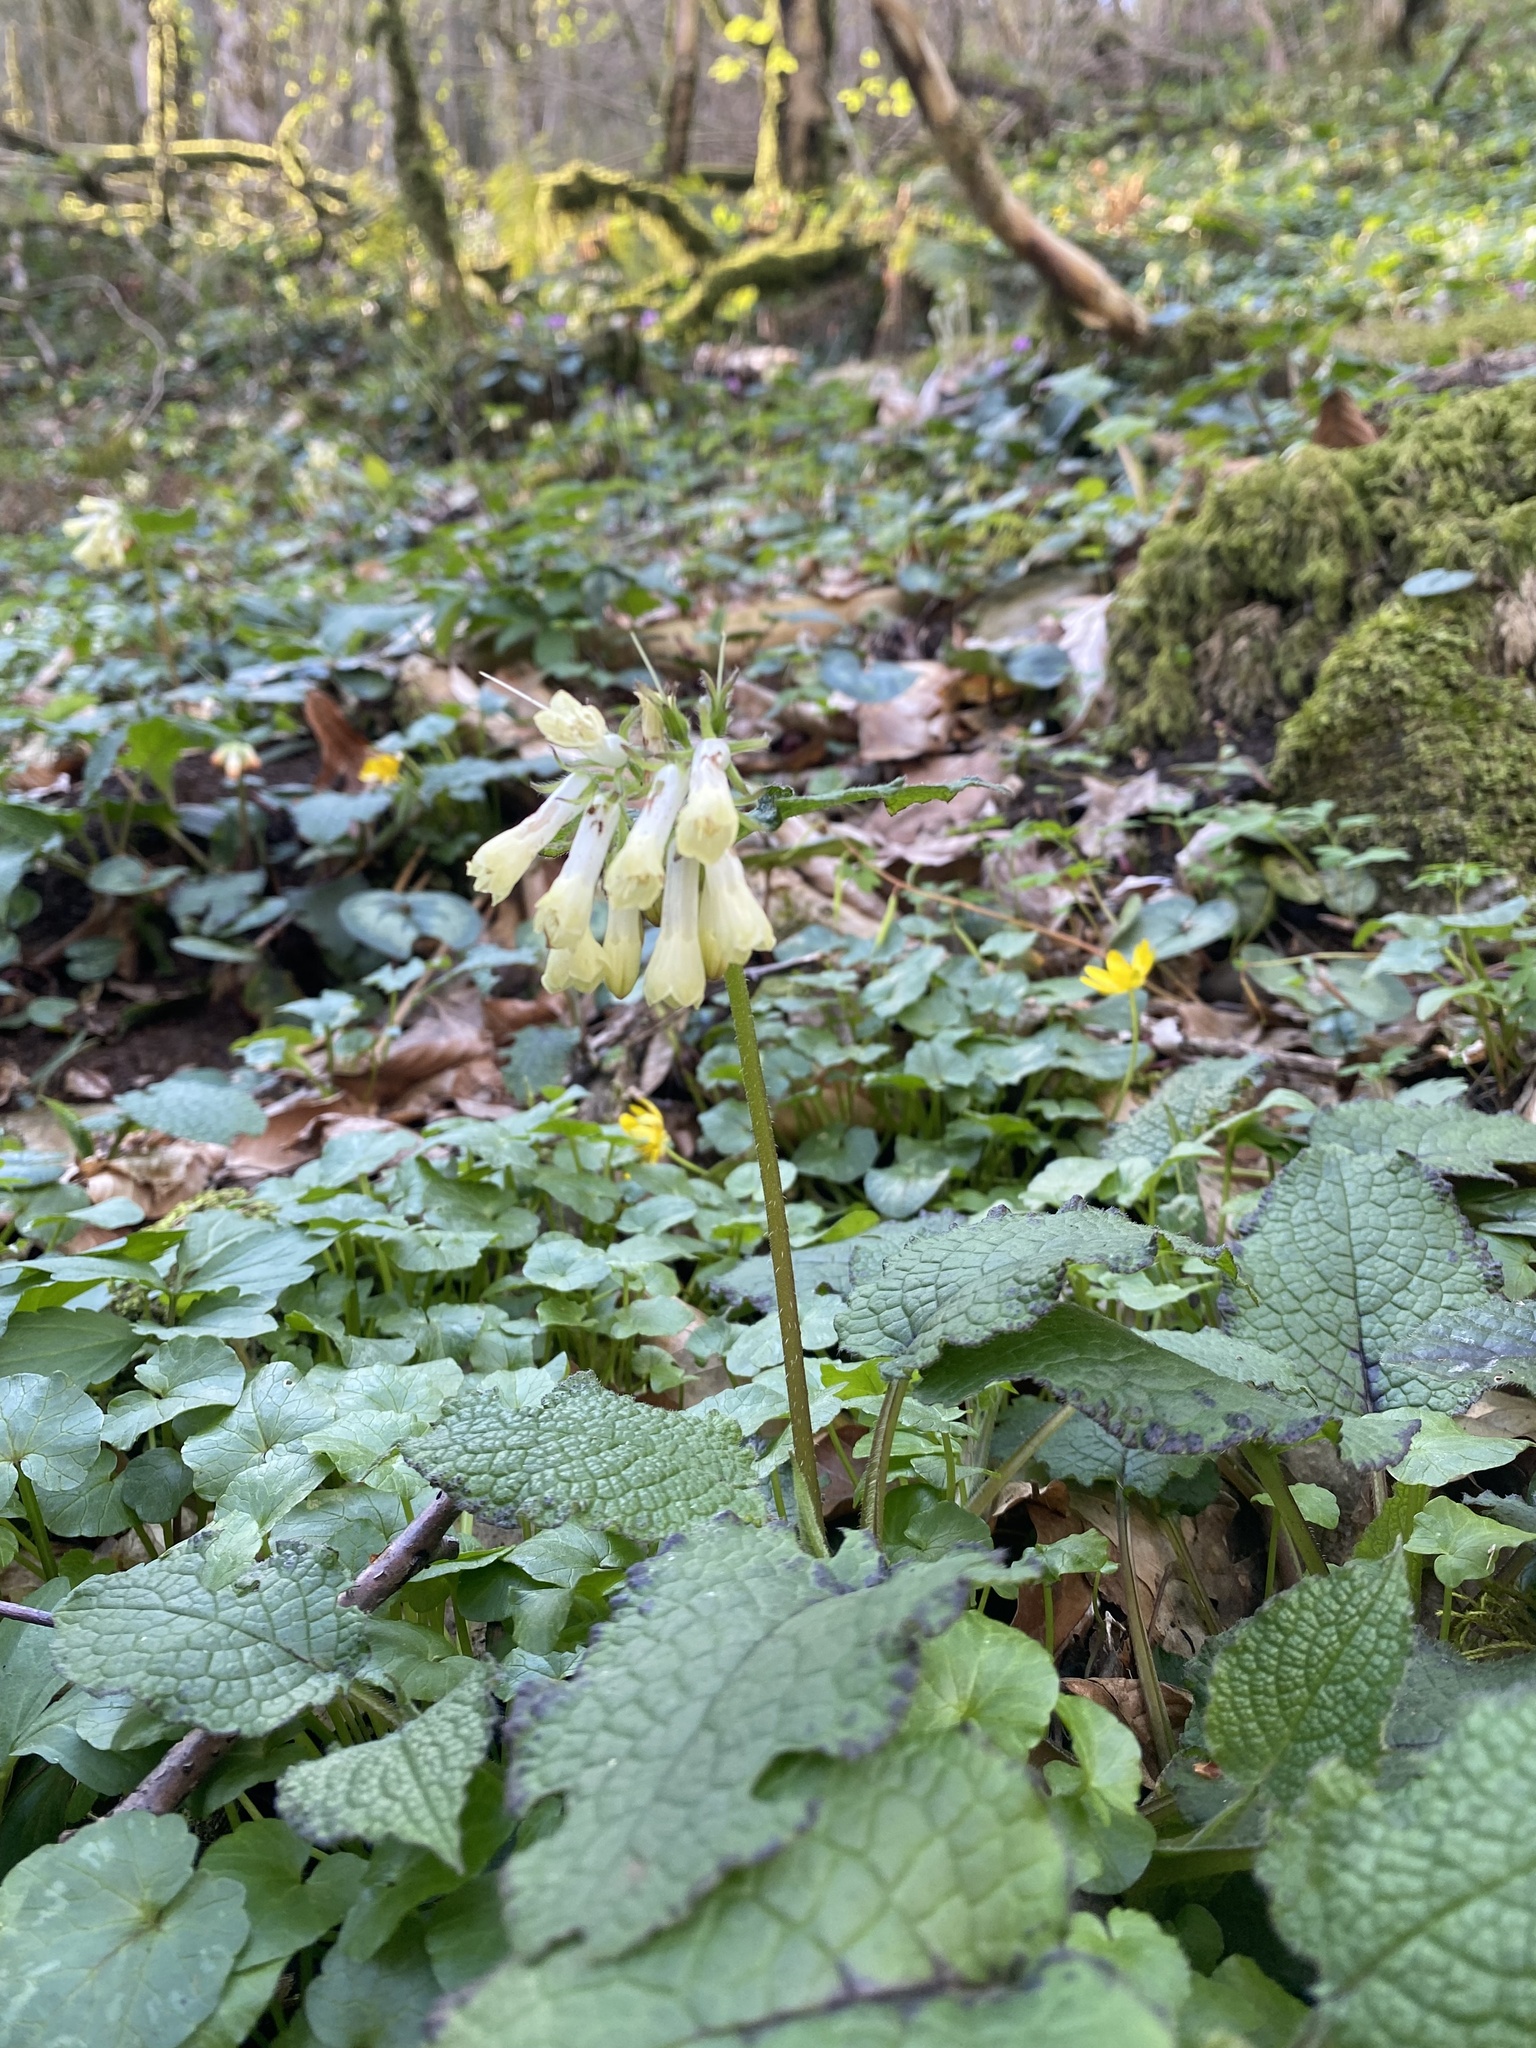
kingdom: Plantae
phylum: Tracheophyta
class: Magnoliopsida
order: Boraginales
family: Boraginaceae
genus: Symphytum
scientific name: Symphytum grandiflorum
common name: Creeping comfrey
